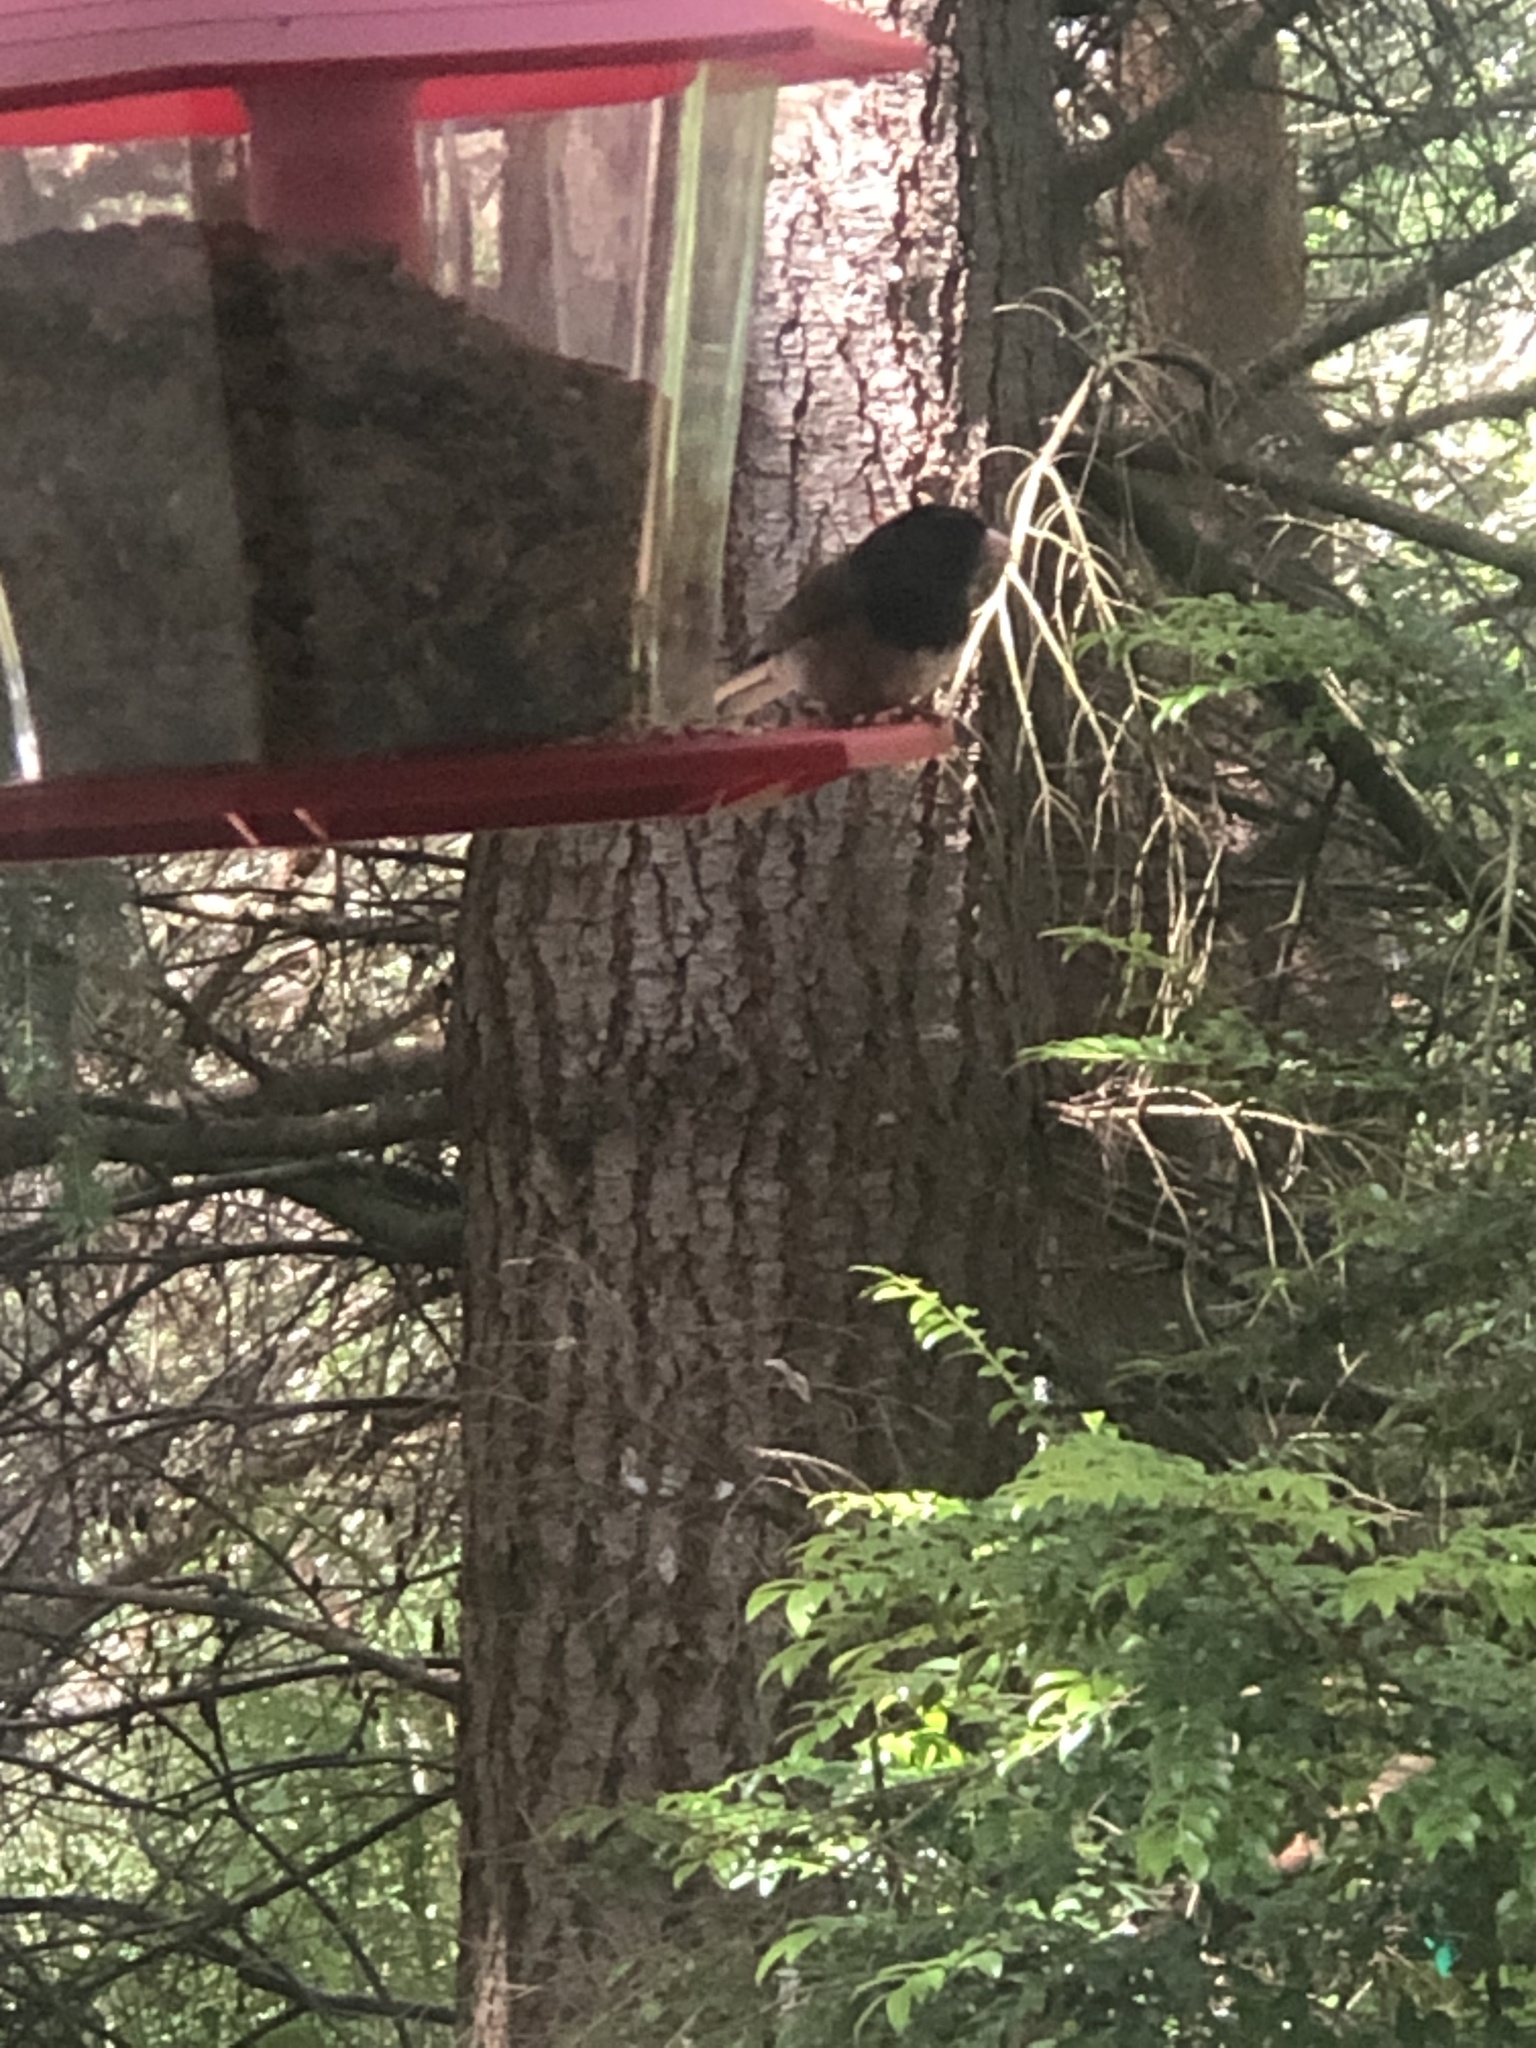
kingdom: Animalia
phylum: Chordata
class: Aves
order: Passeriformes
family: Passerellidae
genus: Junco
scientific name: Junco hyemalis
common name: Dark-eyed junco
